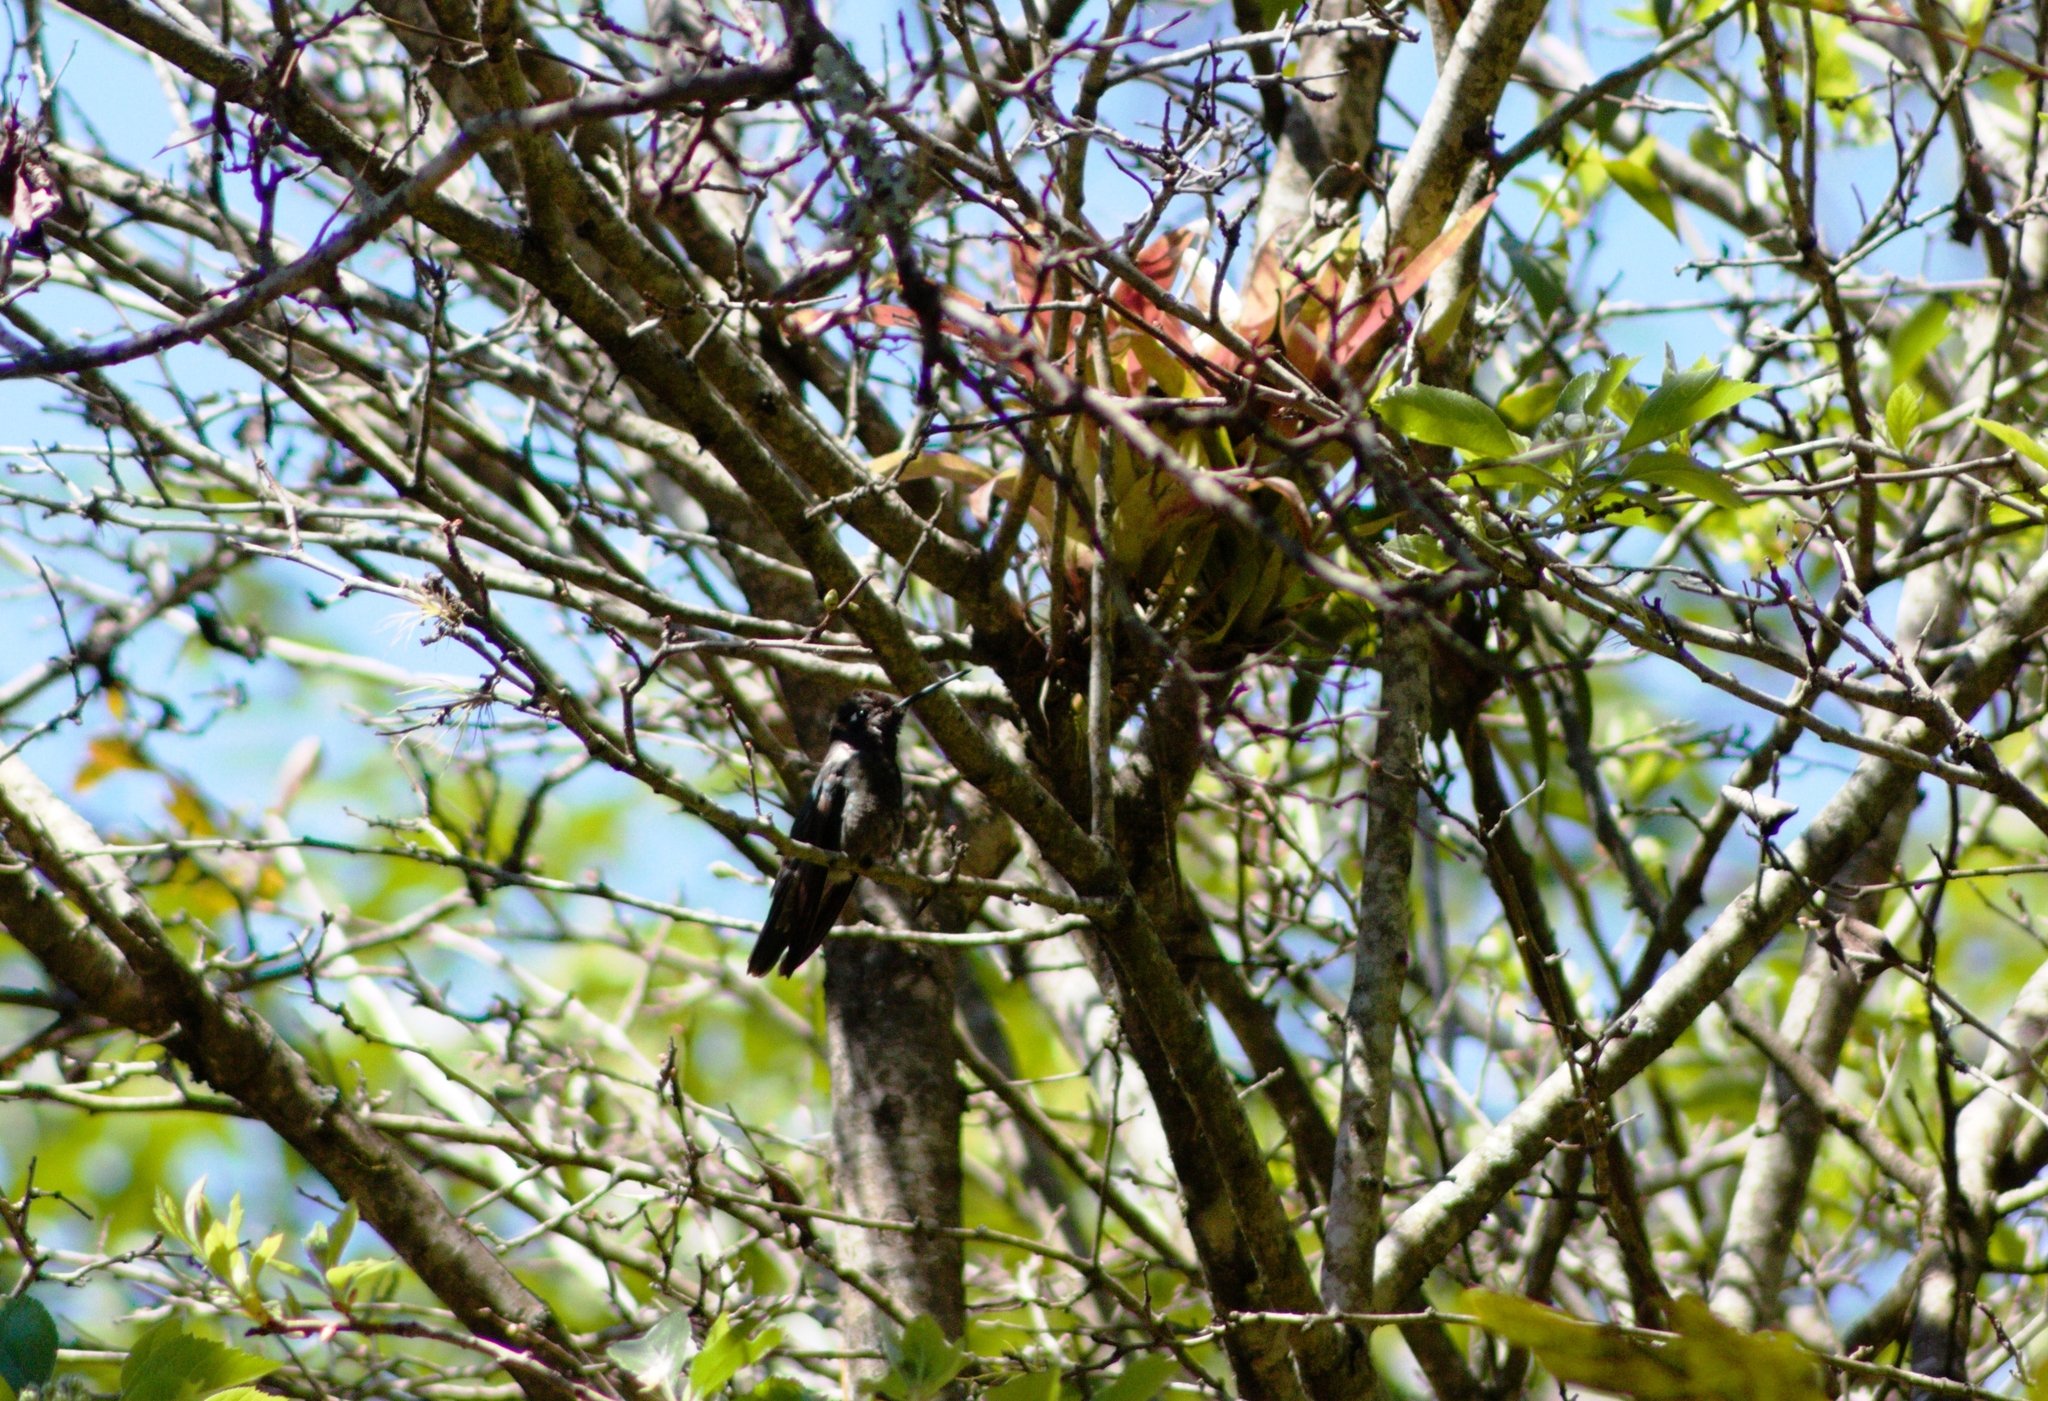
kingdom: Animalia
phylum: Chordata
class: Aves
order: Apodiformes
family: Trochilidae
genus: Eugenes
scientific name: Eugenes fulgens
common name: Magnificent hummingbird
